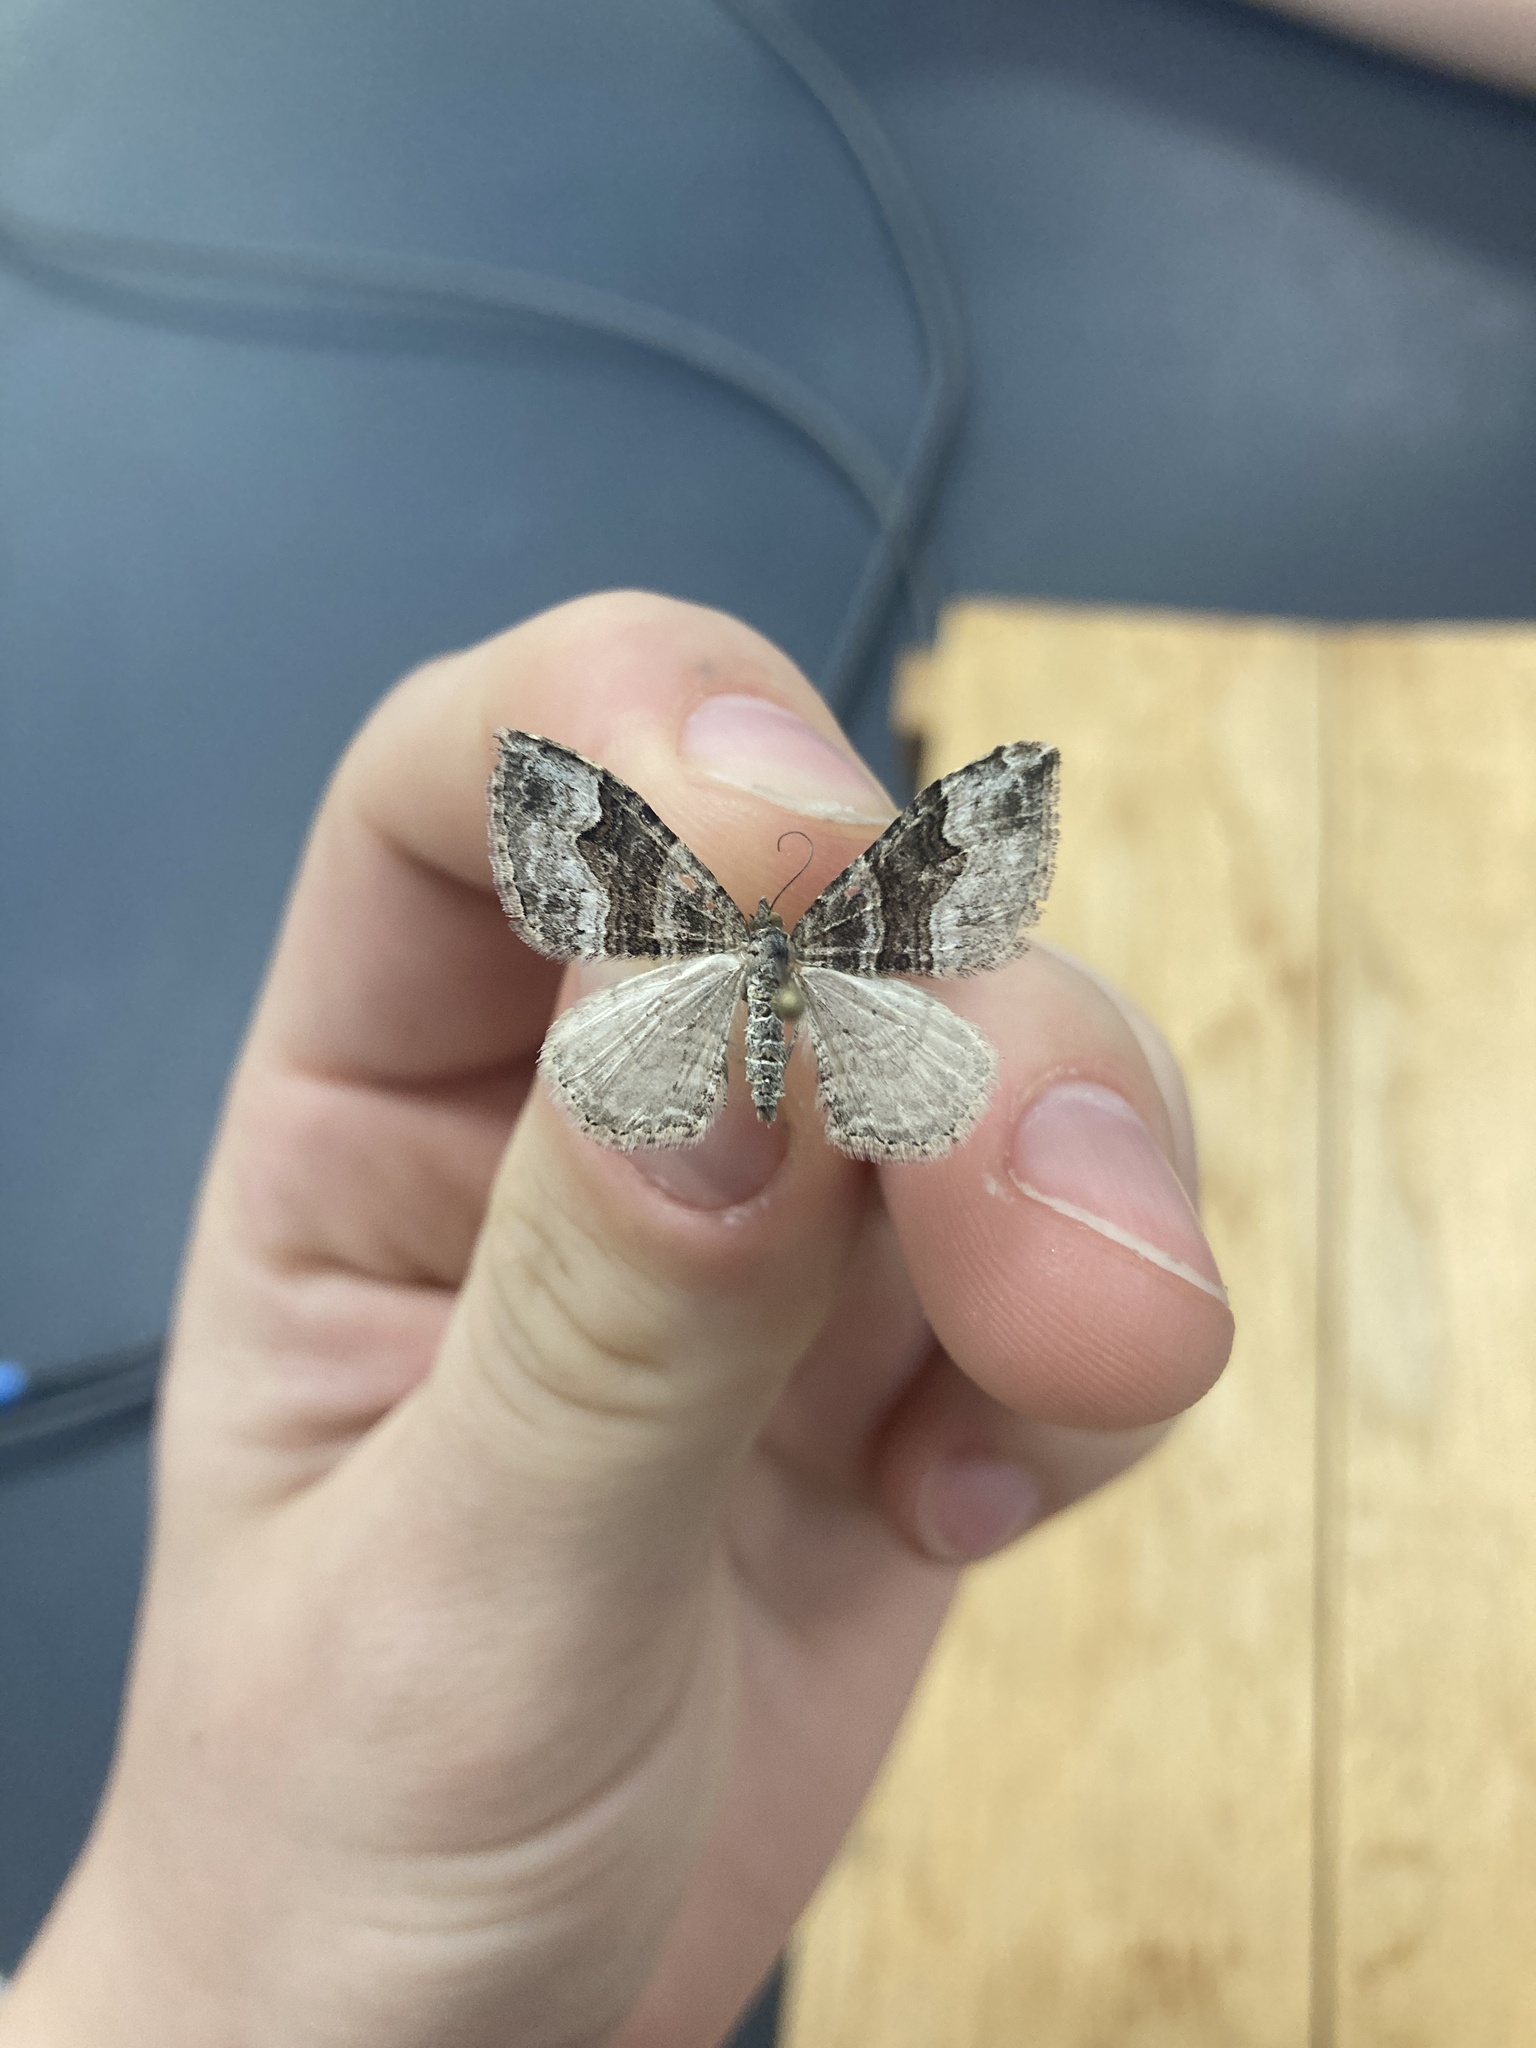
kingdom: Animalia
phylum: Arthropoda
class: Insecta
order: Lepidoptera
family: Geometridae
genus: Xanthorhoe
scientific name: Xanthorhoe defensaria
